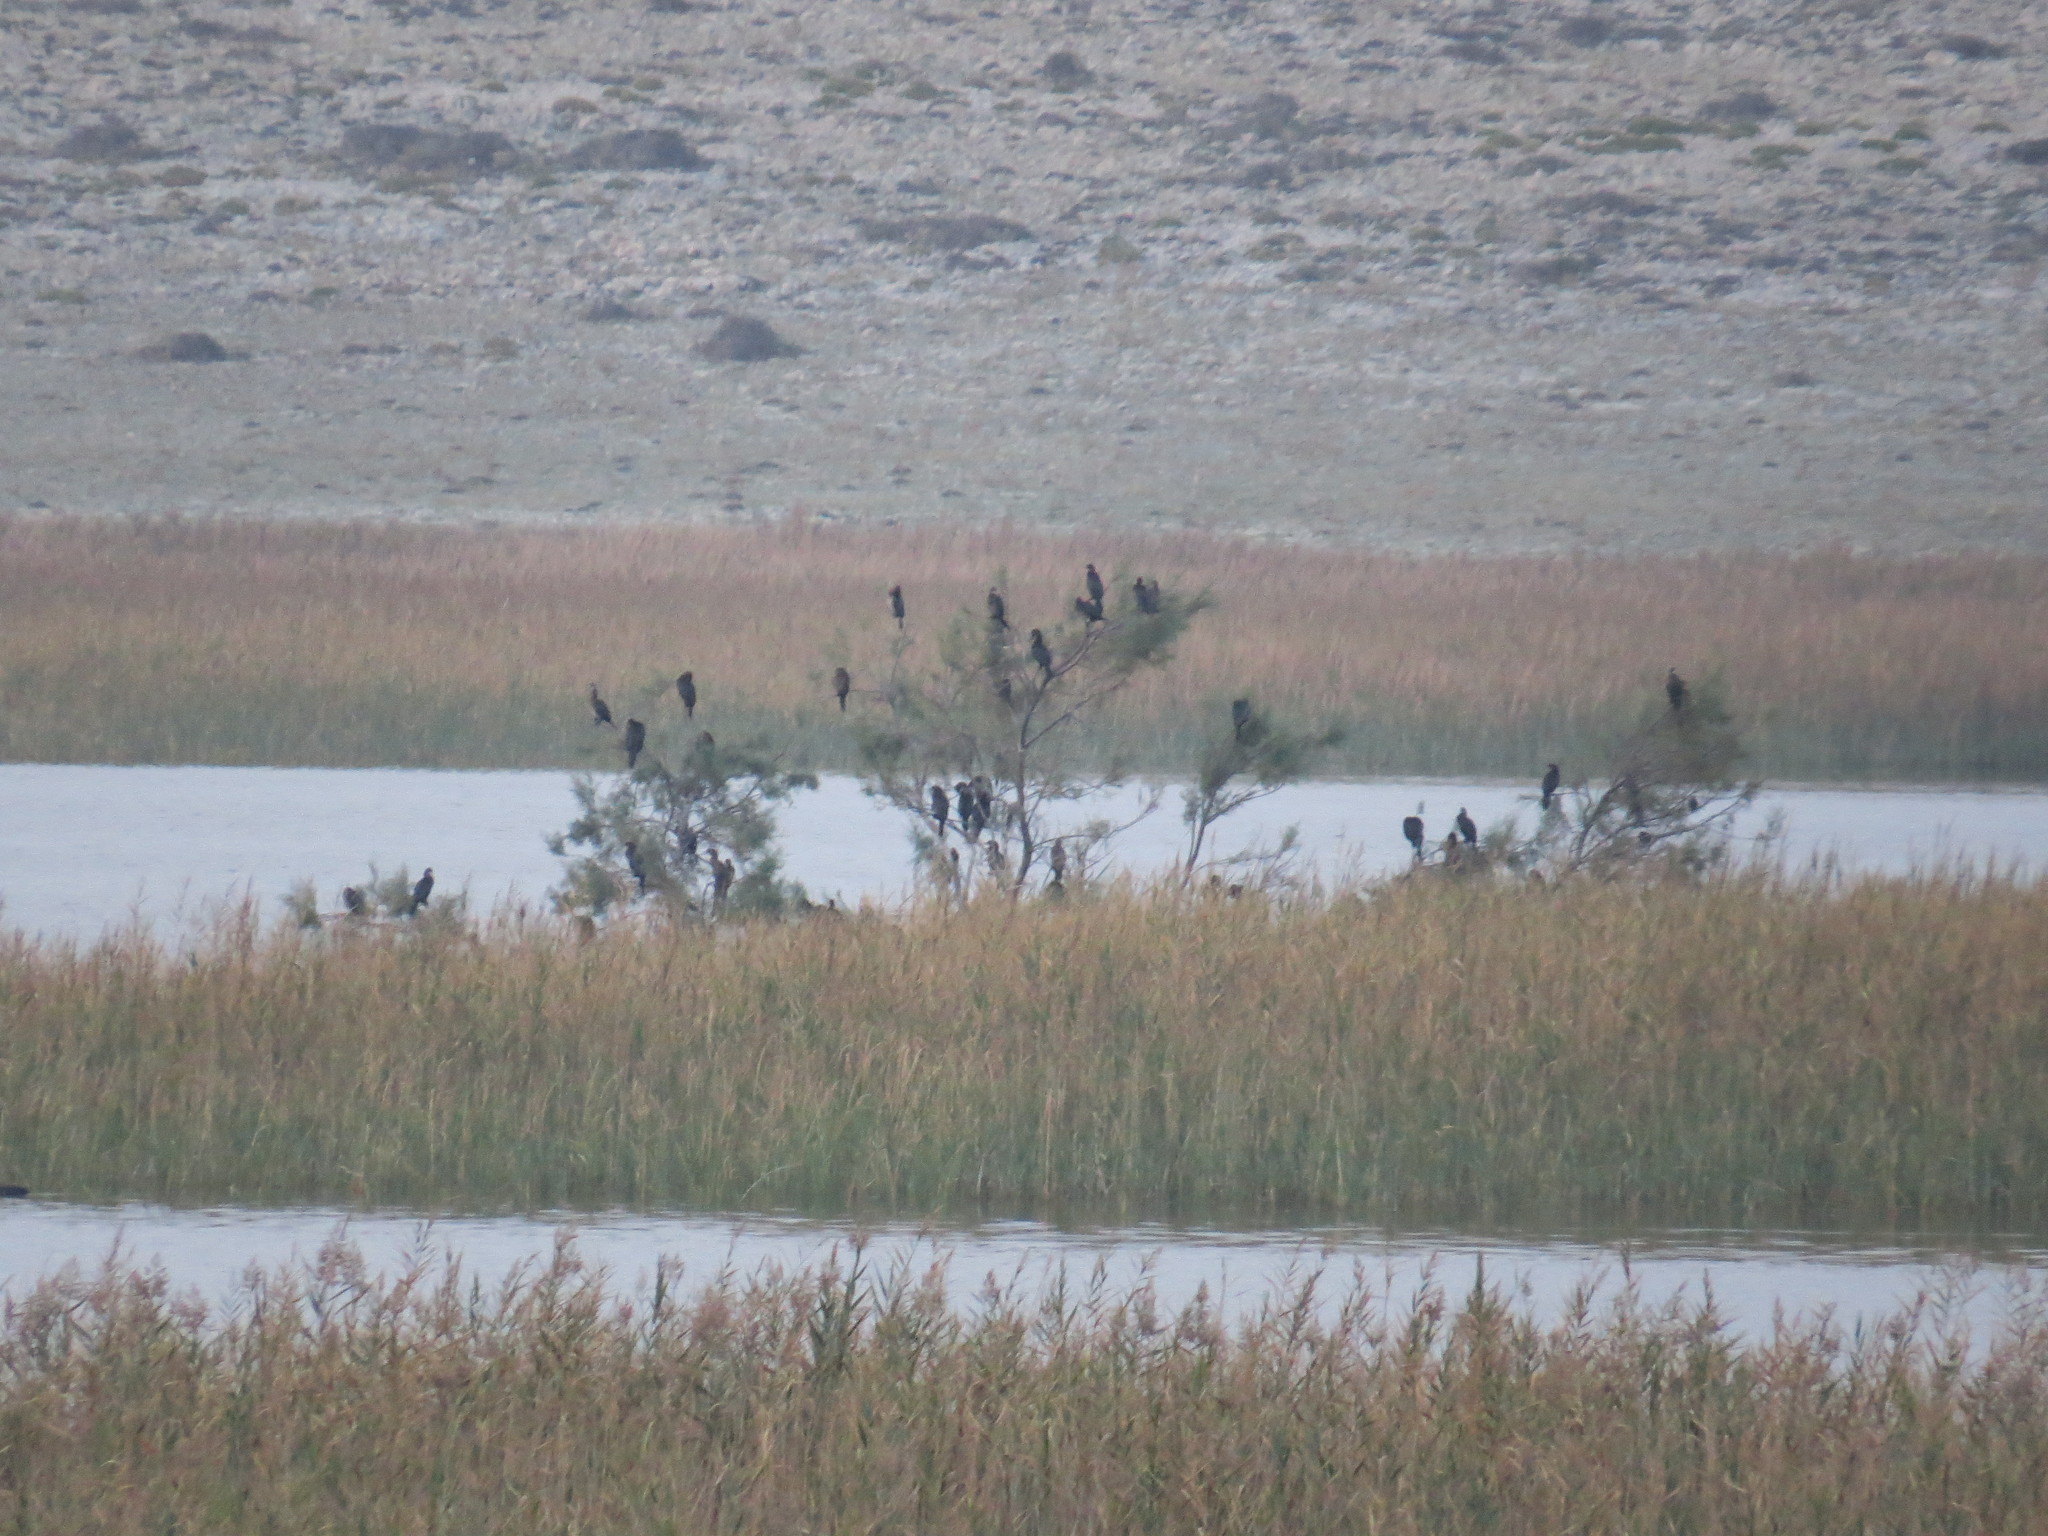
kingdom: Animalia
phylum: Chordata
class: Aves
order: Suliformes
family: Phalacrocoracidae
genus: Microcarbo
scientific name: Microcarbo pygmaeus
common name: Pygmy cormorant
